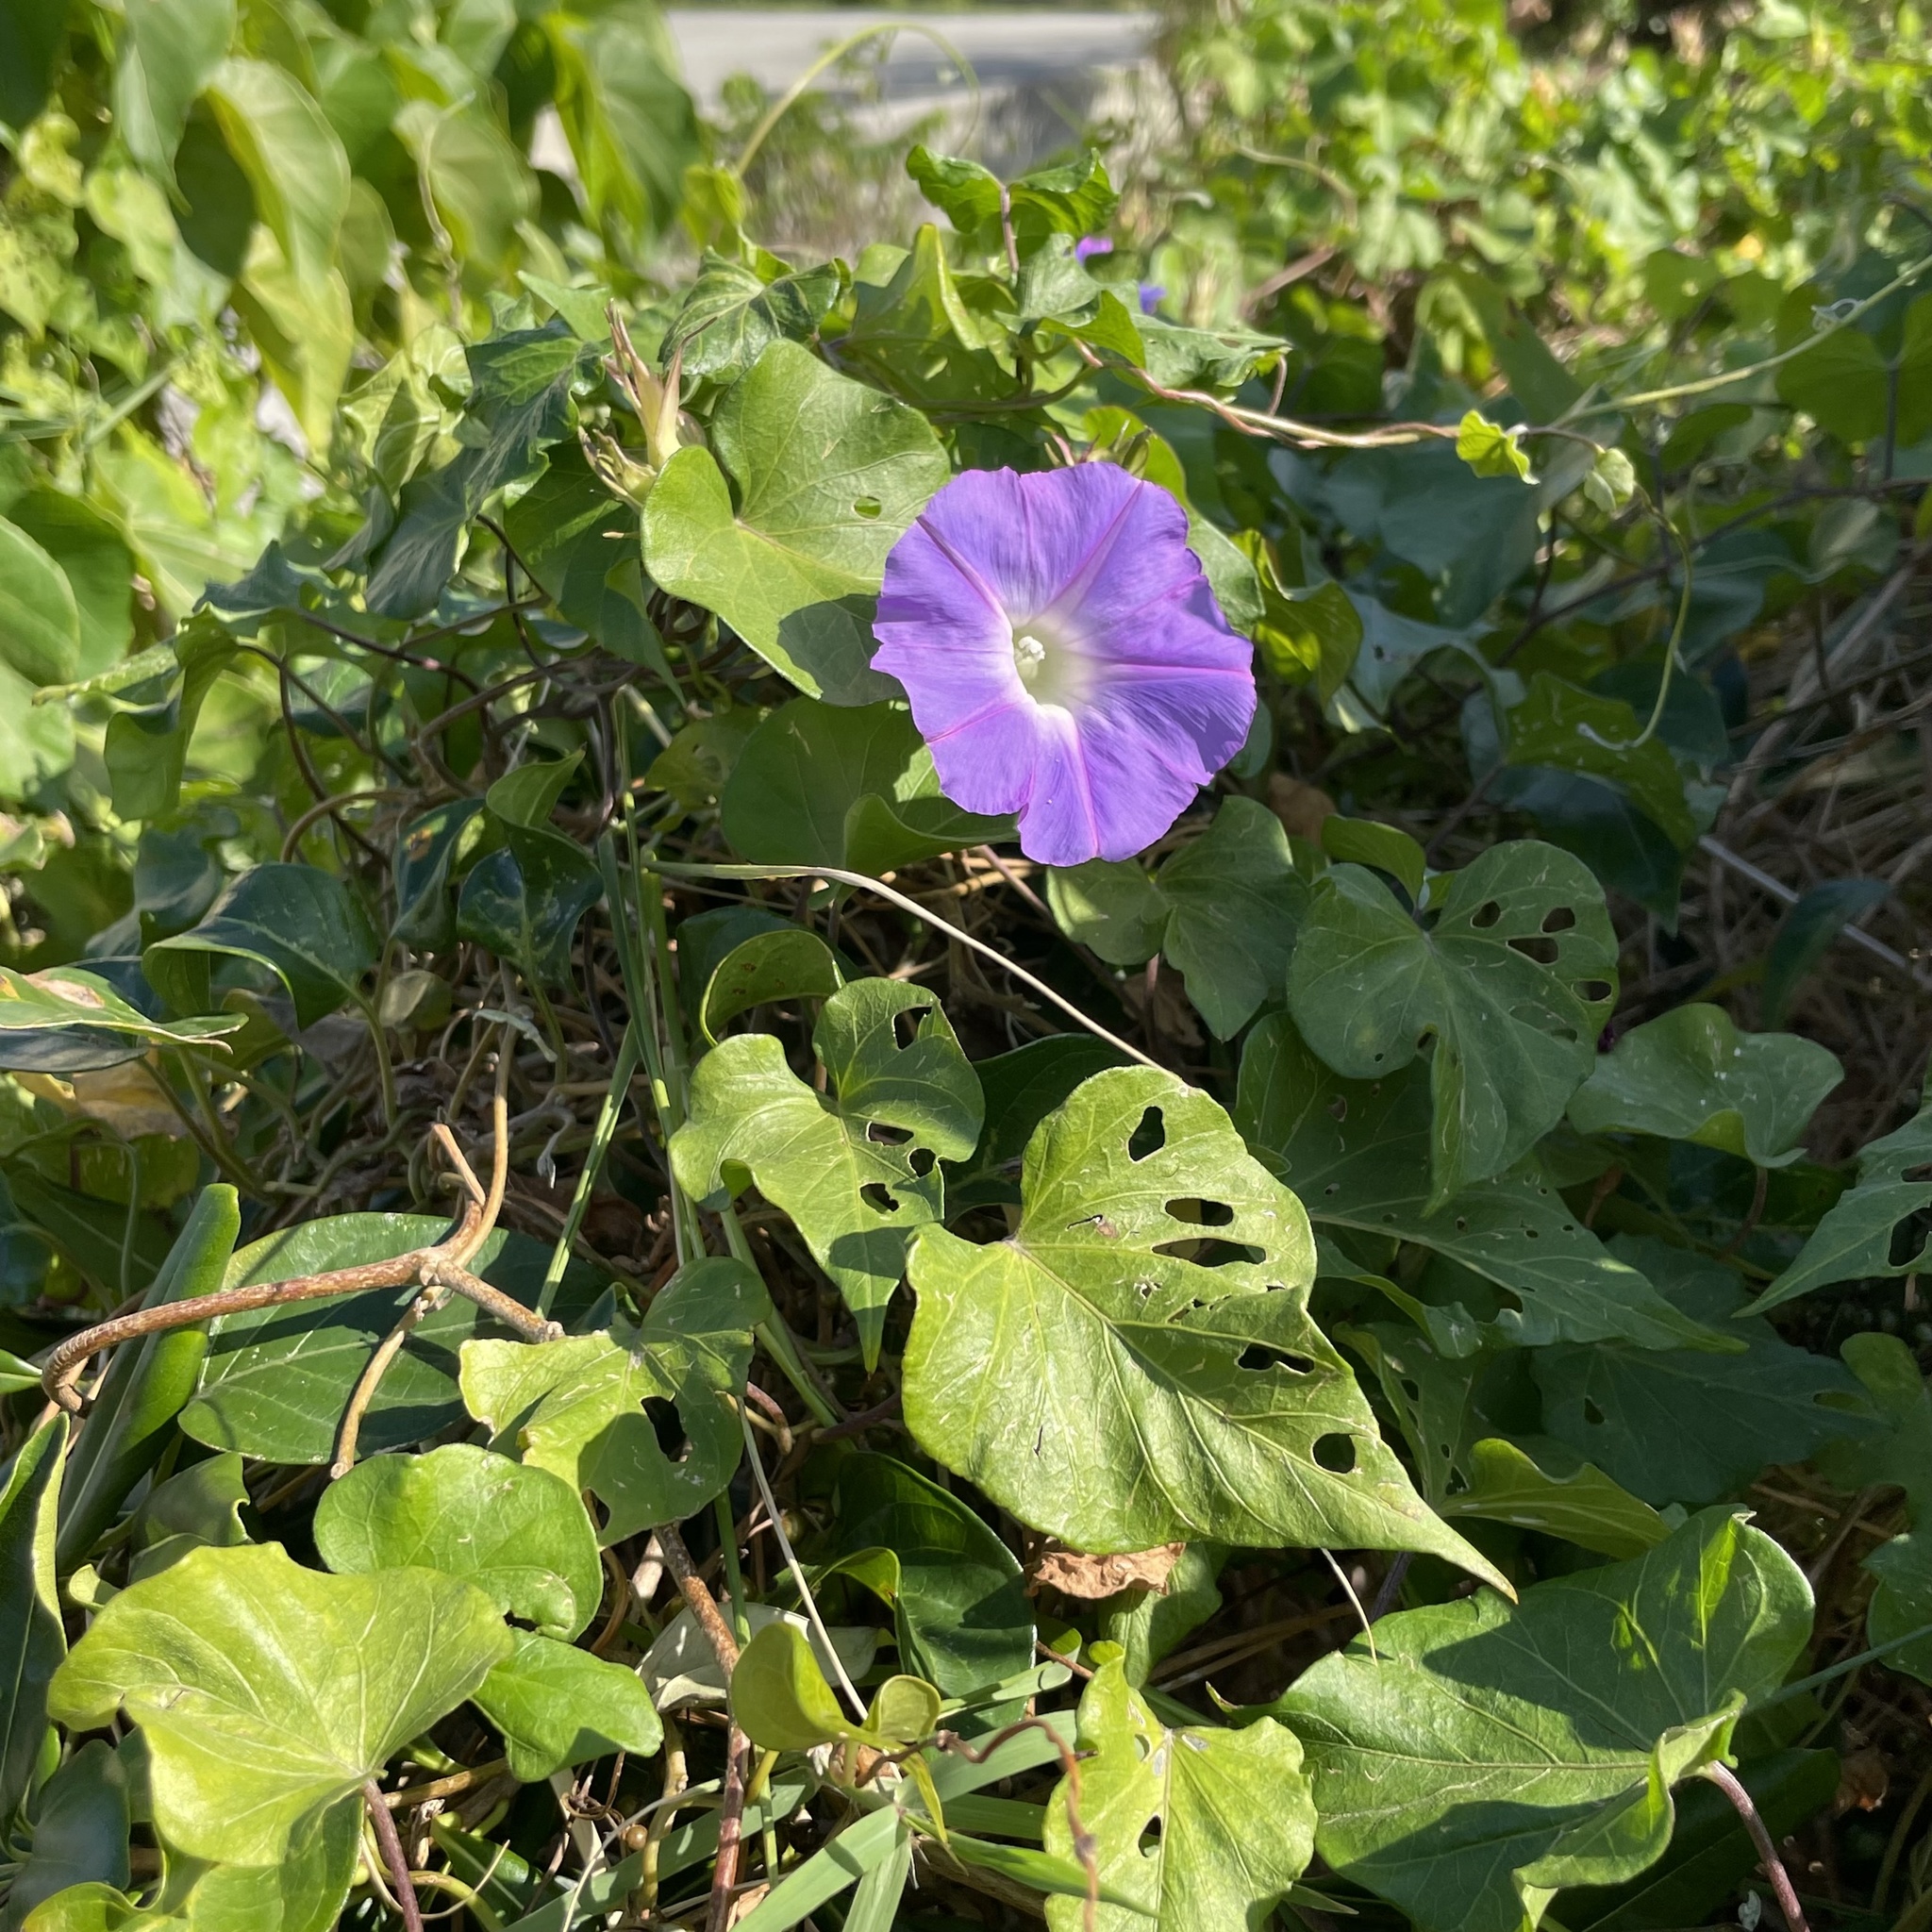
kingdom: Plantae
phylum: Tracheophyta
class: Magnoliopsida
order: Solanales
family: Convolvulaceae
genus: Ipomoea
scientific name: Ipomoea indica
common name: Blue dawnflower
